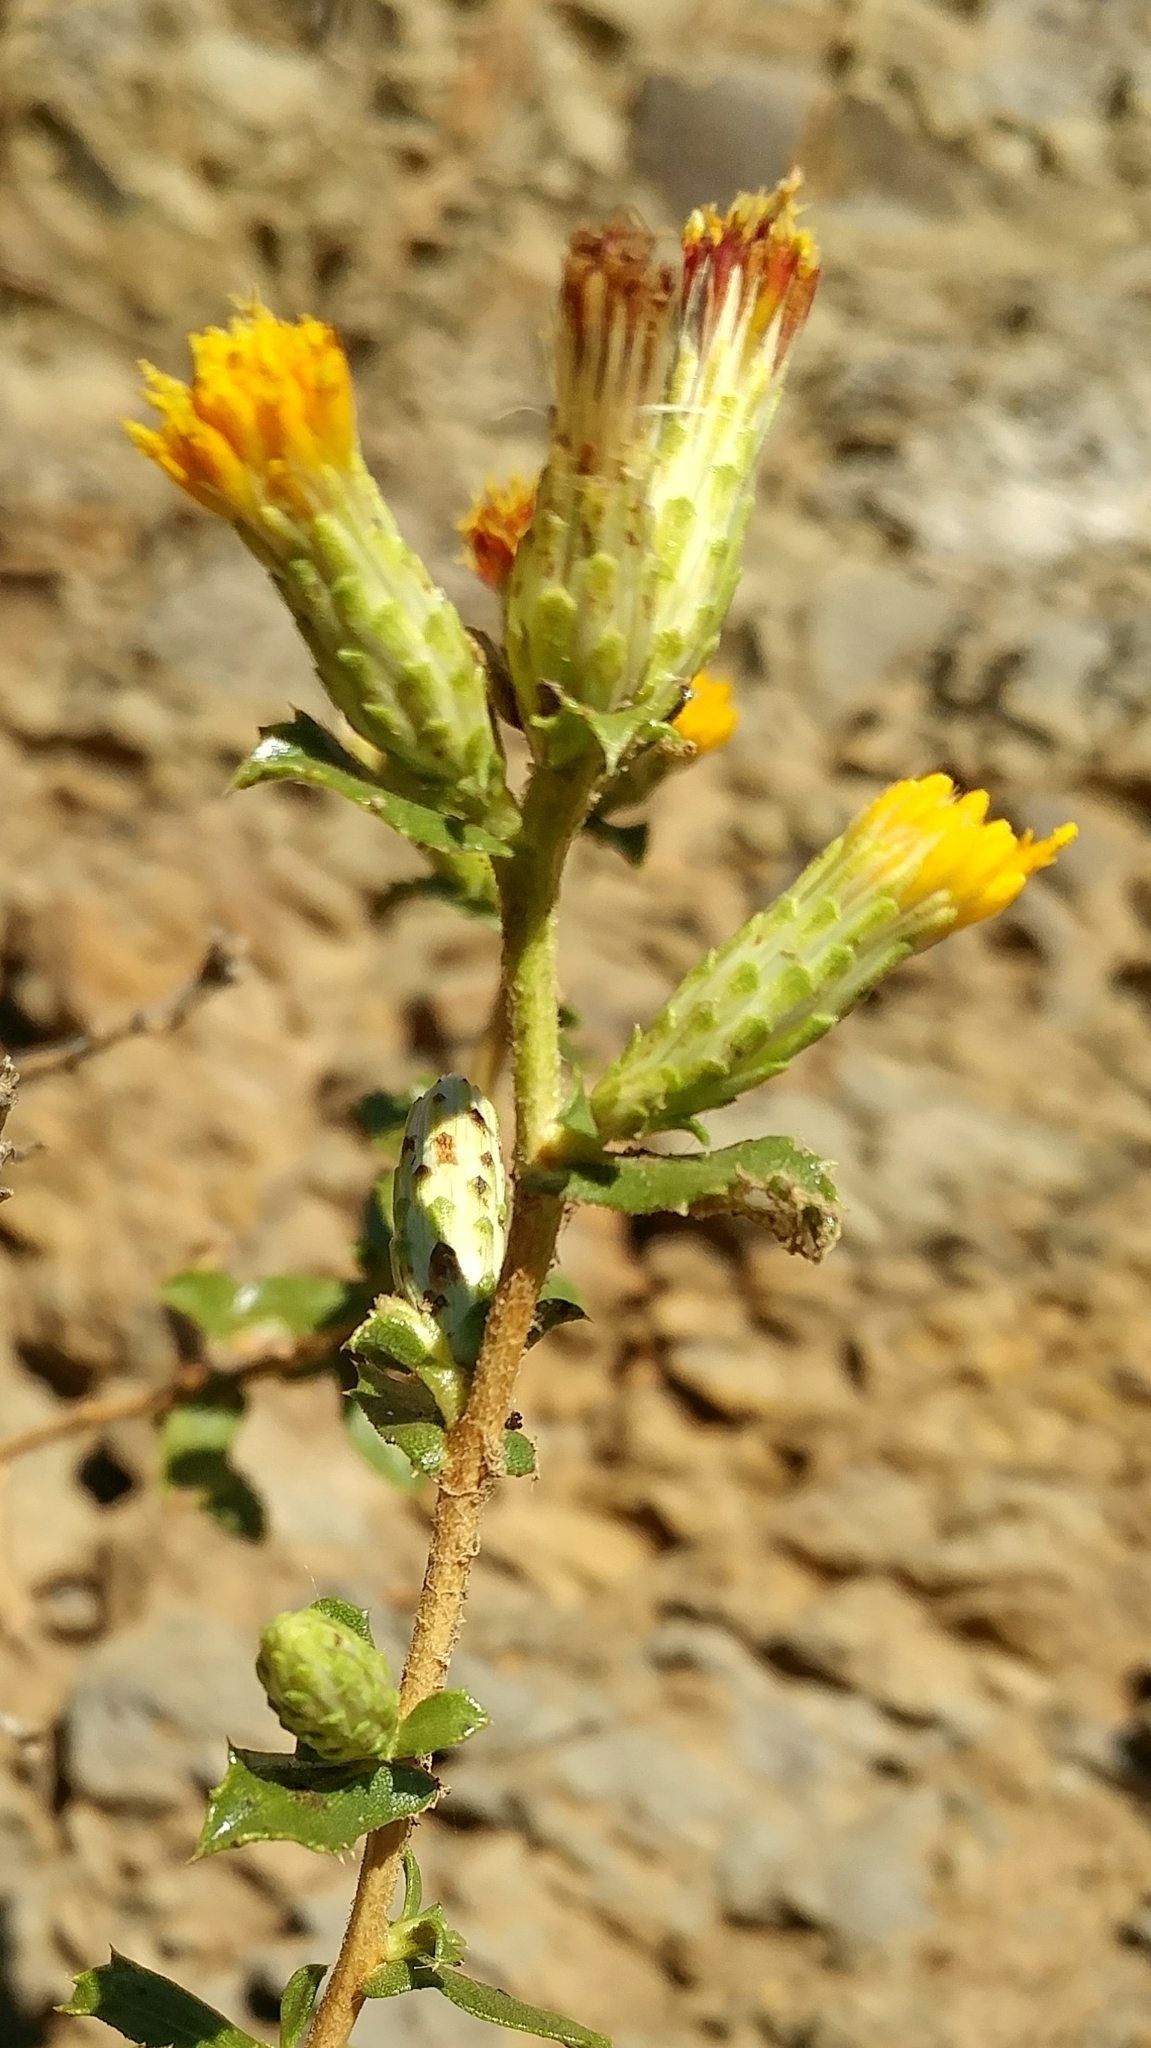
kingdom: Plantae
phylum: Tracheophyta
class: Magnoliopsida
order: Asterales
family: Asteraceae
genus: Hazardia
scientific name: Hazardia squarrosa
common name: Saw-tooth goldenbush
